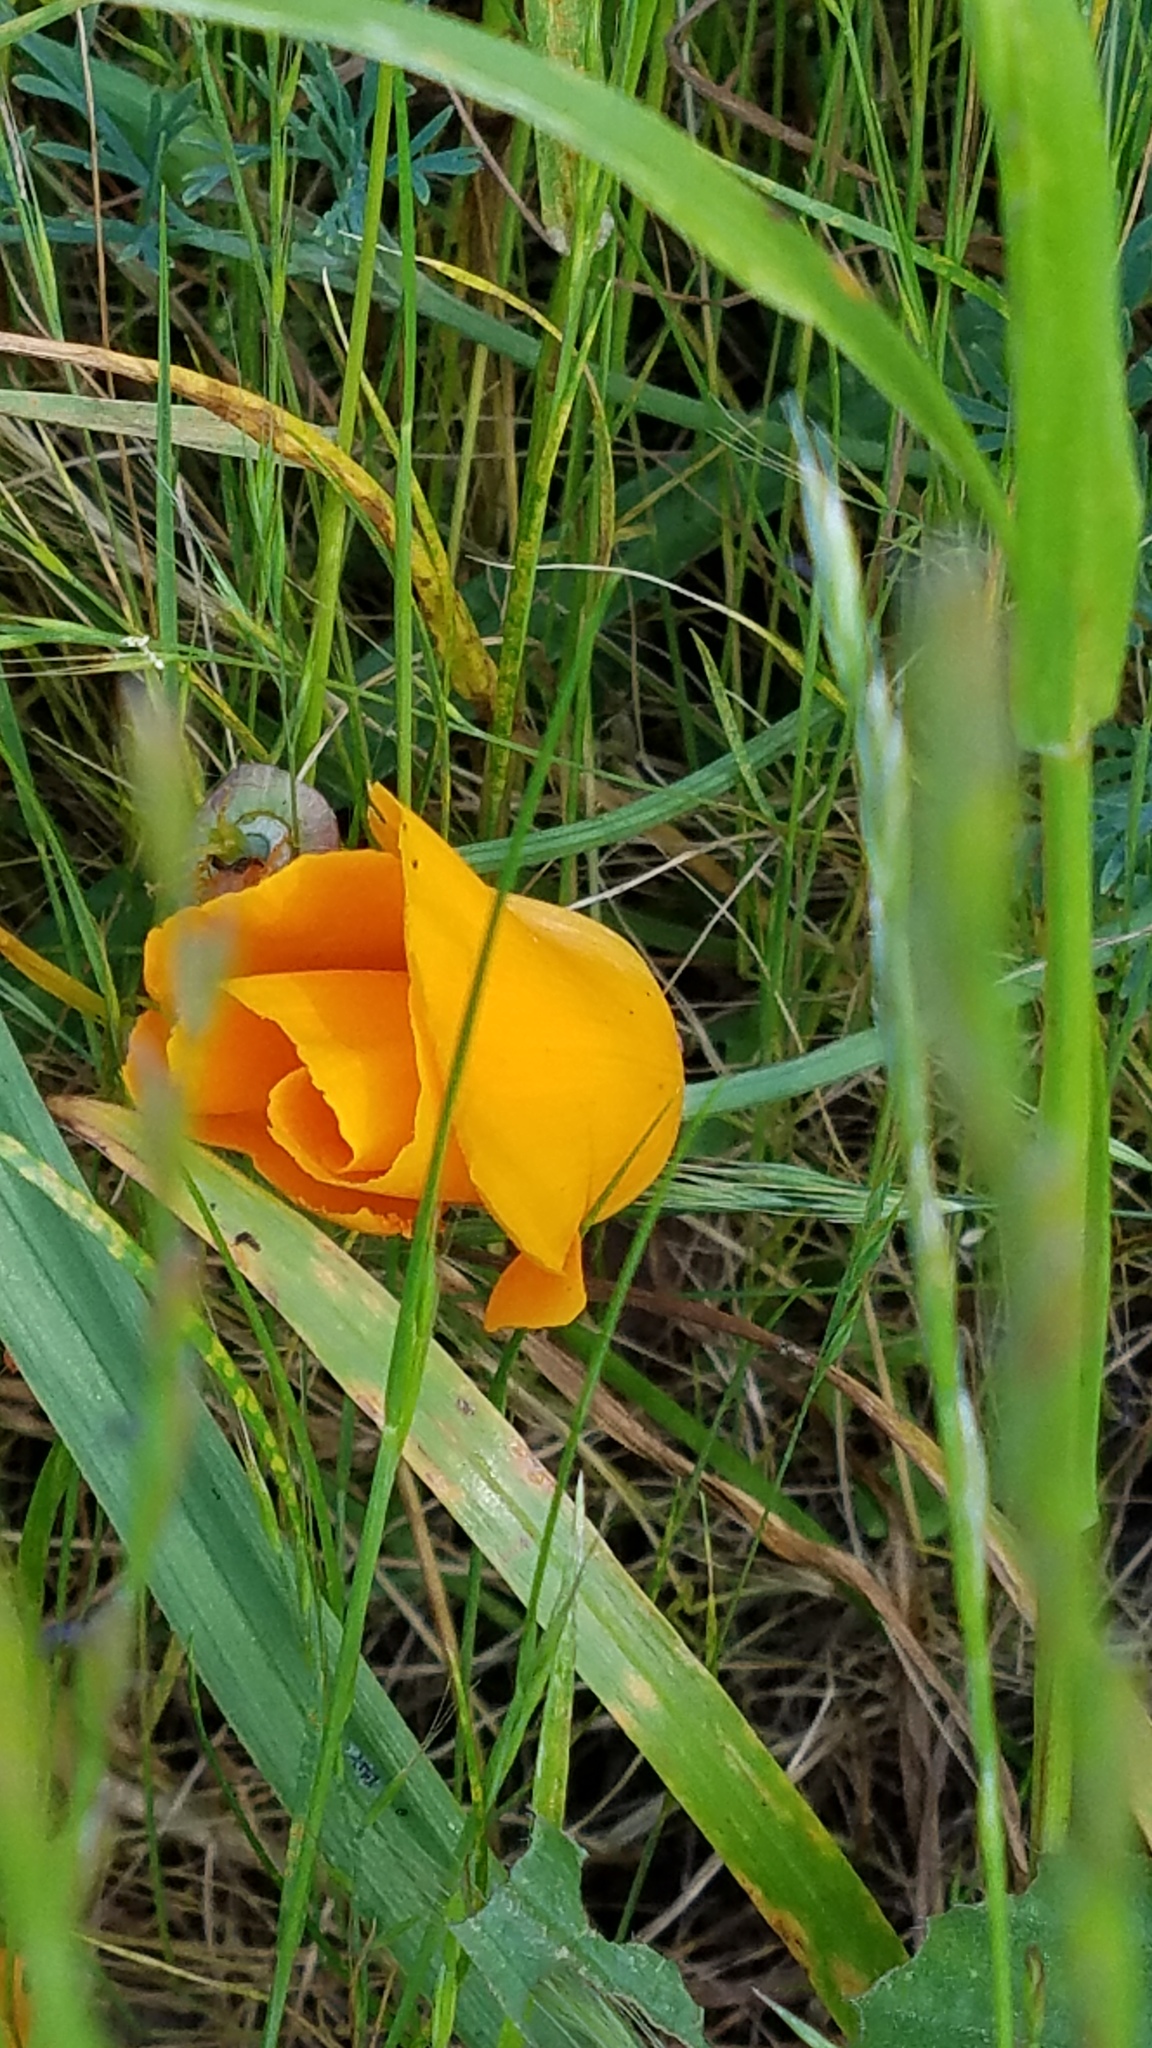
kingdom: Plantae
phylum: Tracheophyta
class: Magnoliopsida
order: Ranunculales
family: Papaveraceae
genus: Eschscholzia
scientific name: Eschscholzia californica
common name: California poppy
